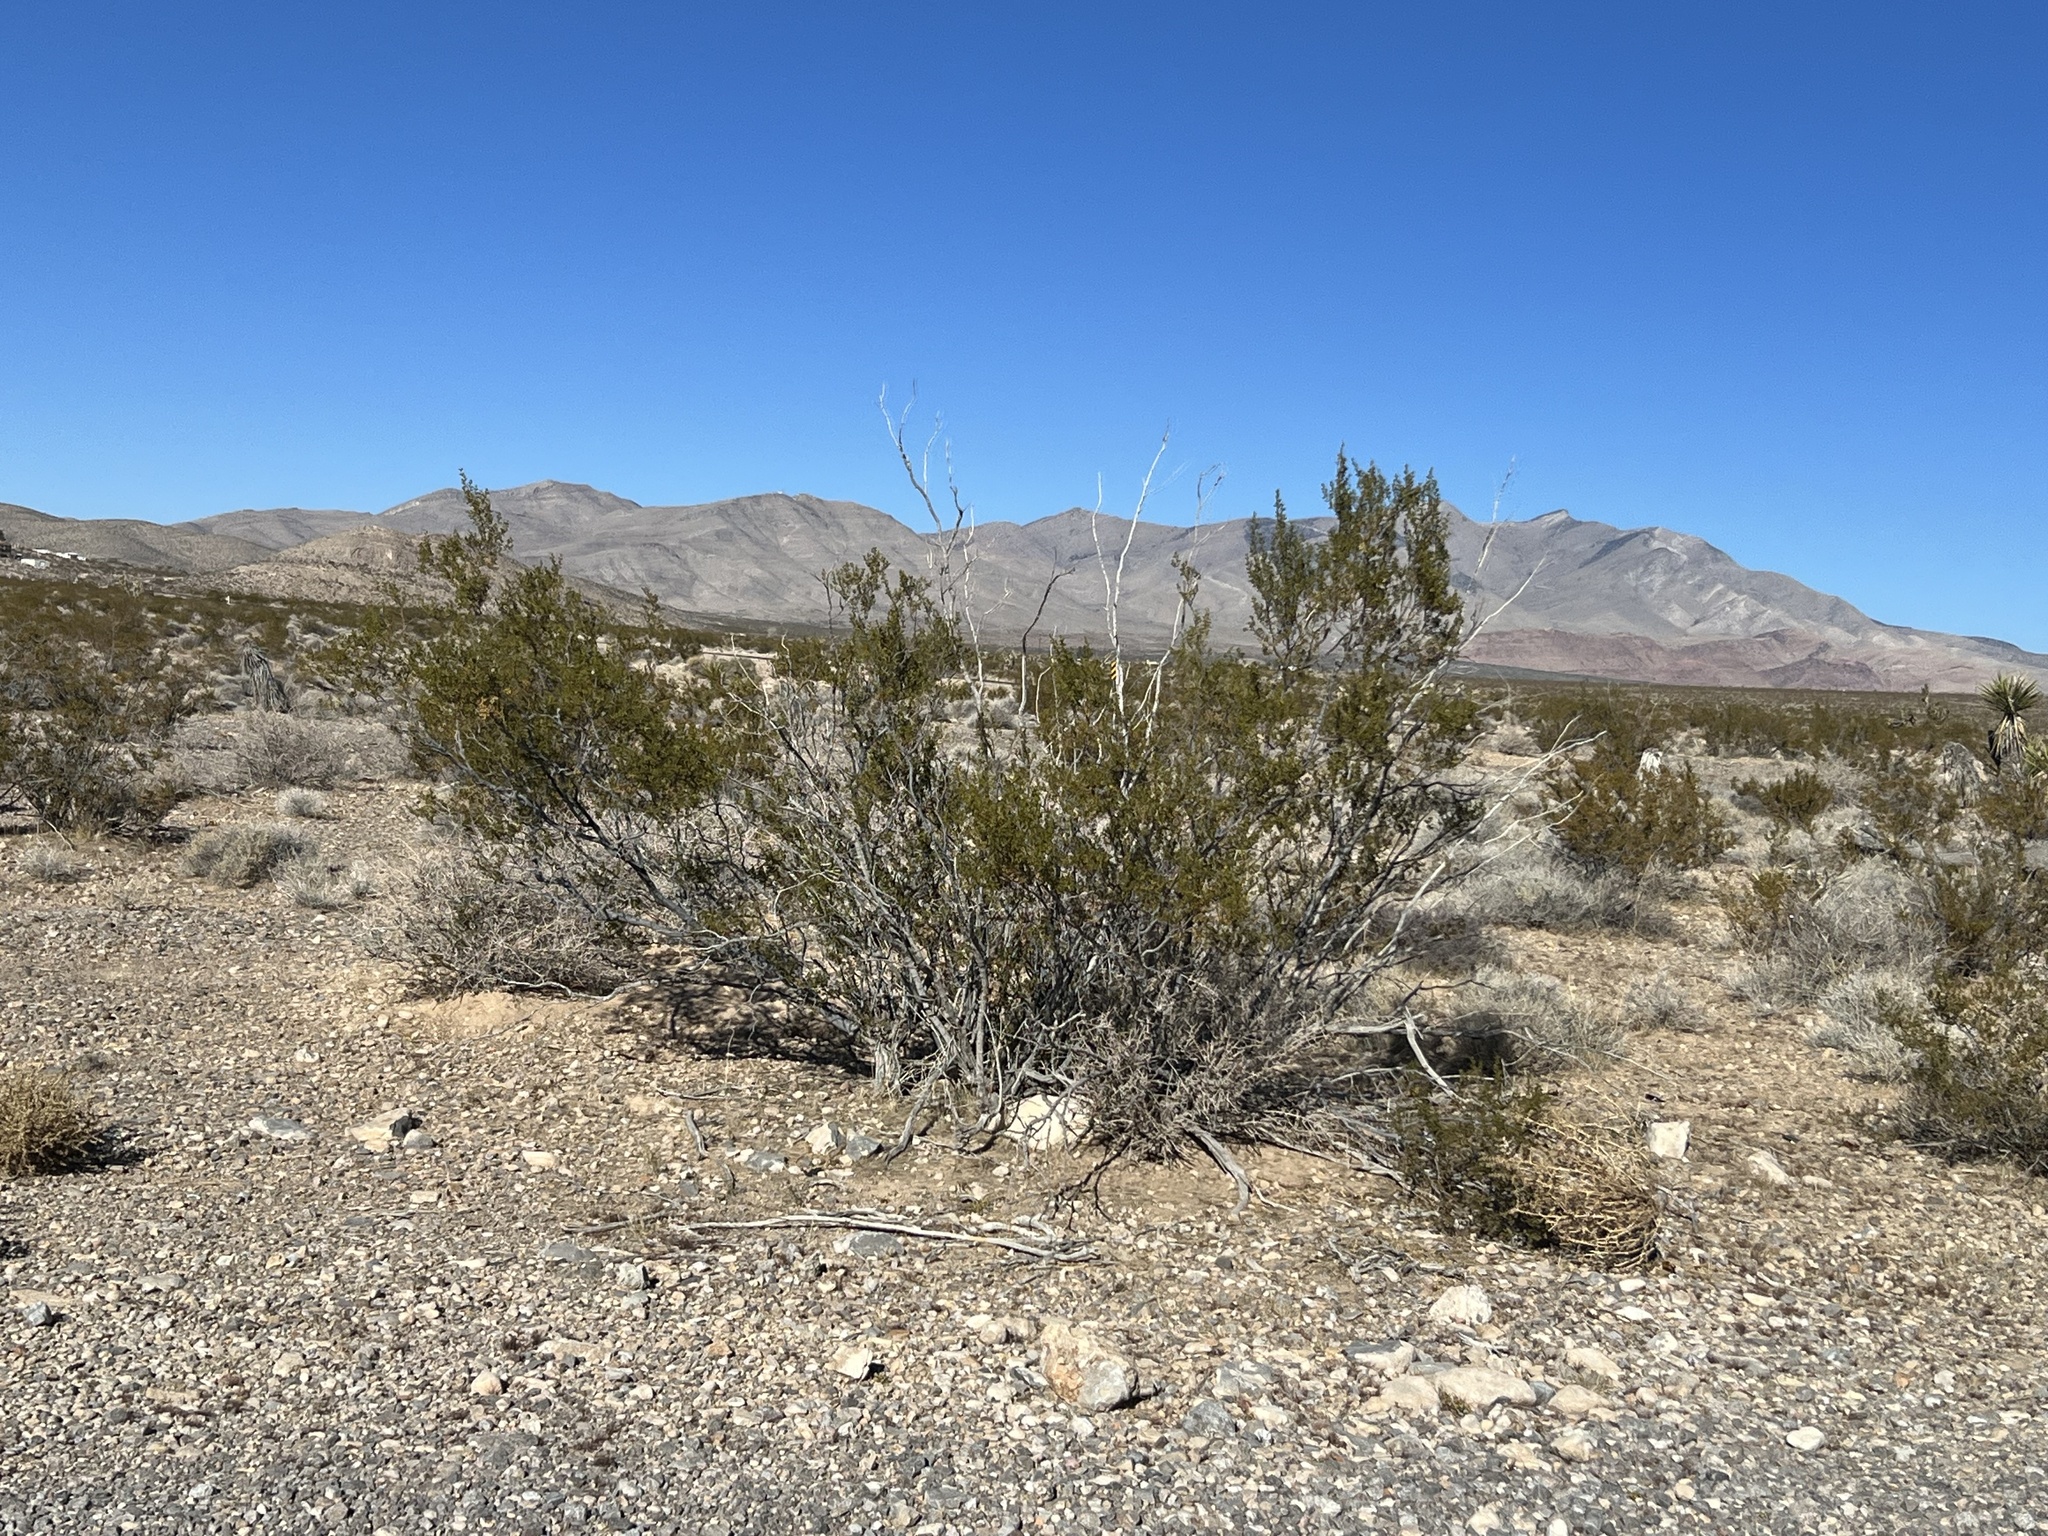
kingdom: Plantae
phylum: Tracheophyta
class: Magnoliopsida
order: Zygophyllales
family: Zygophyllaceae
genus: Larrea
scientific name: Larrea tridentata
